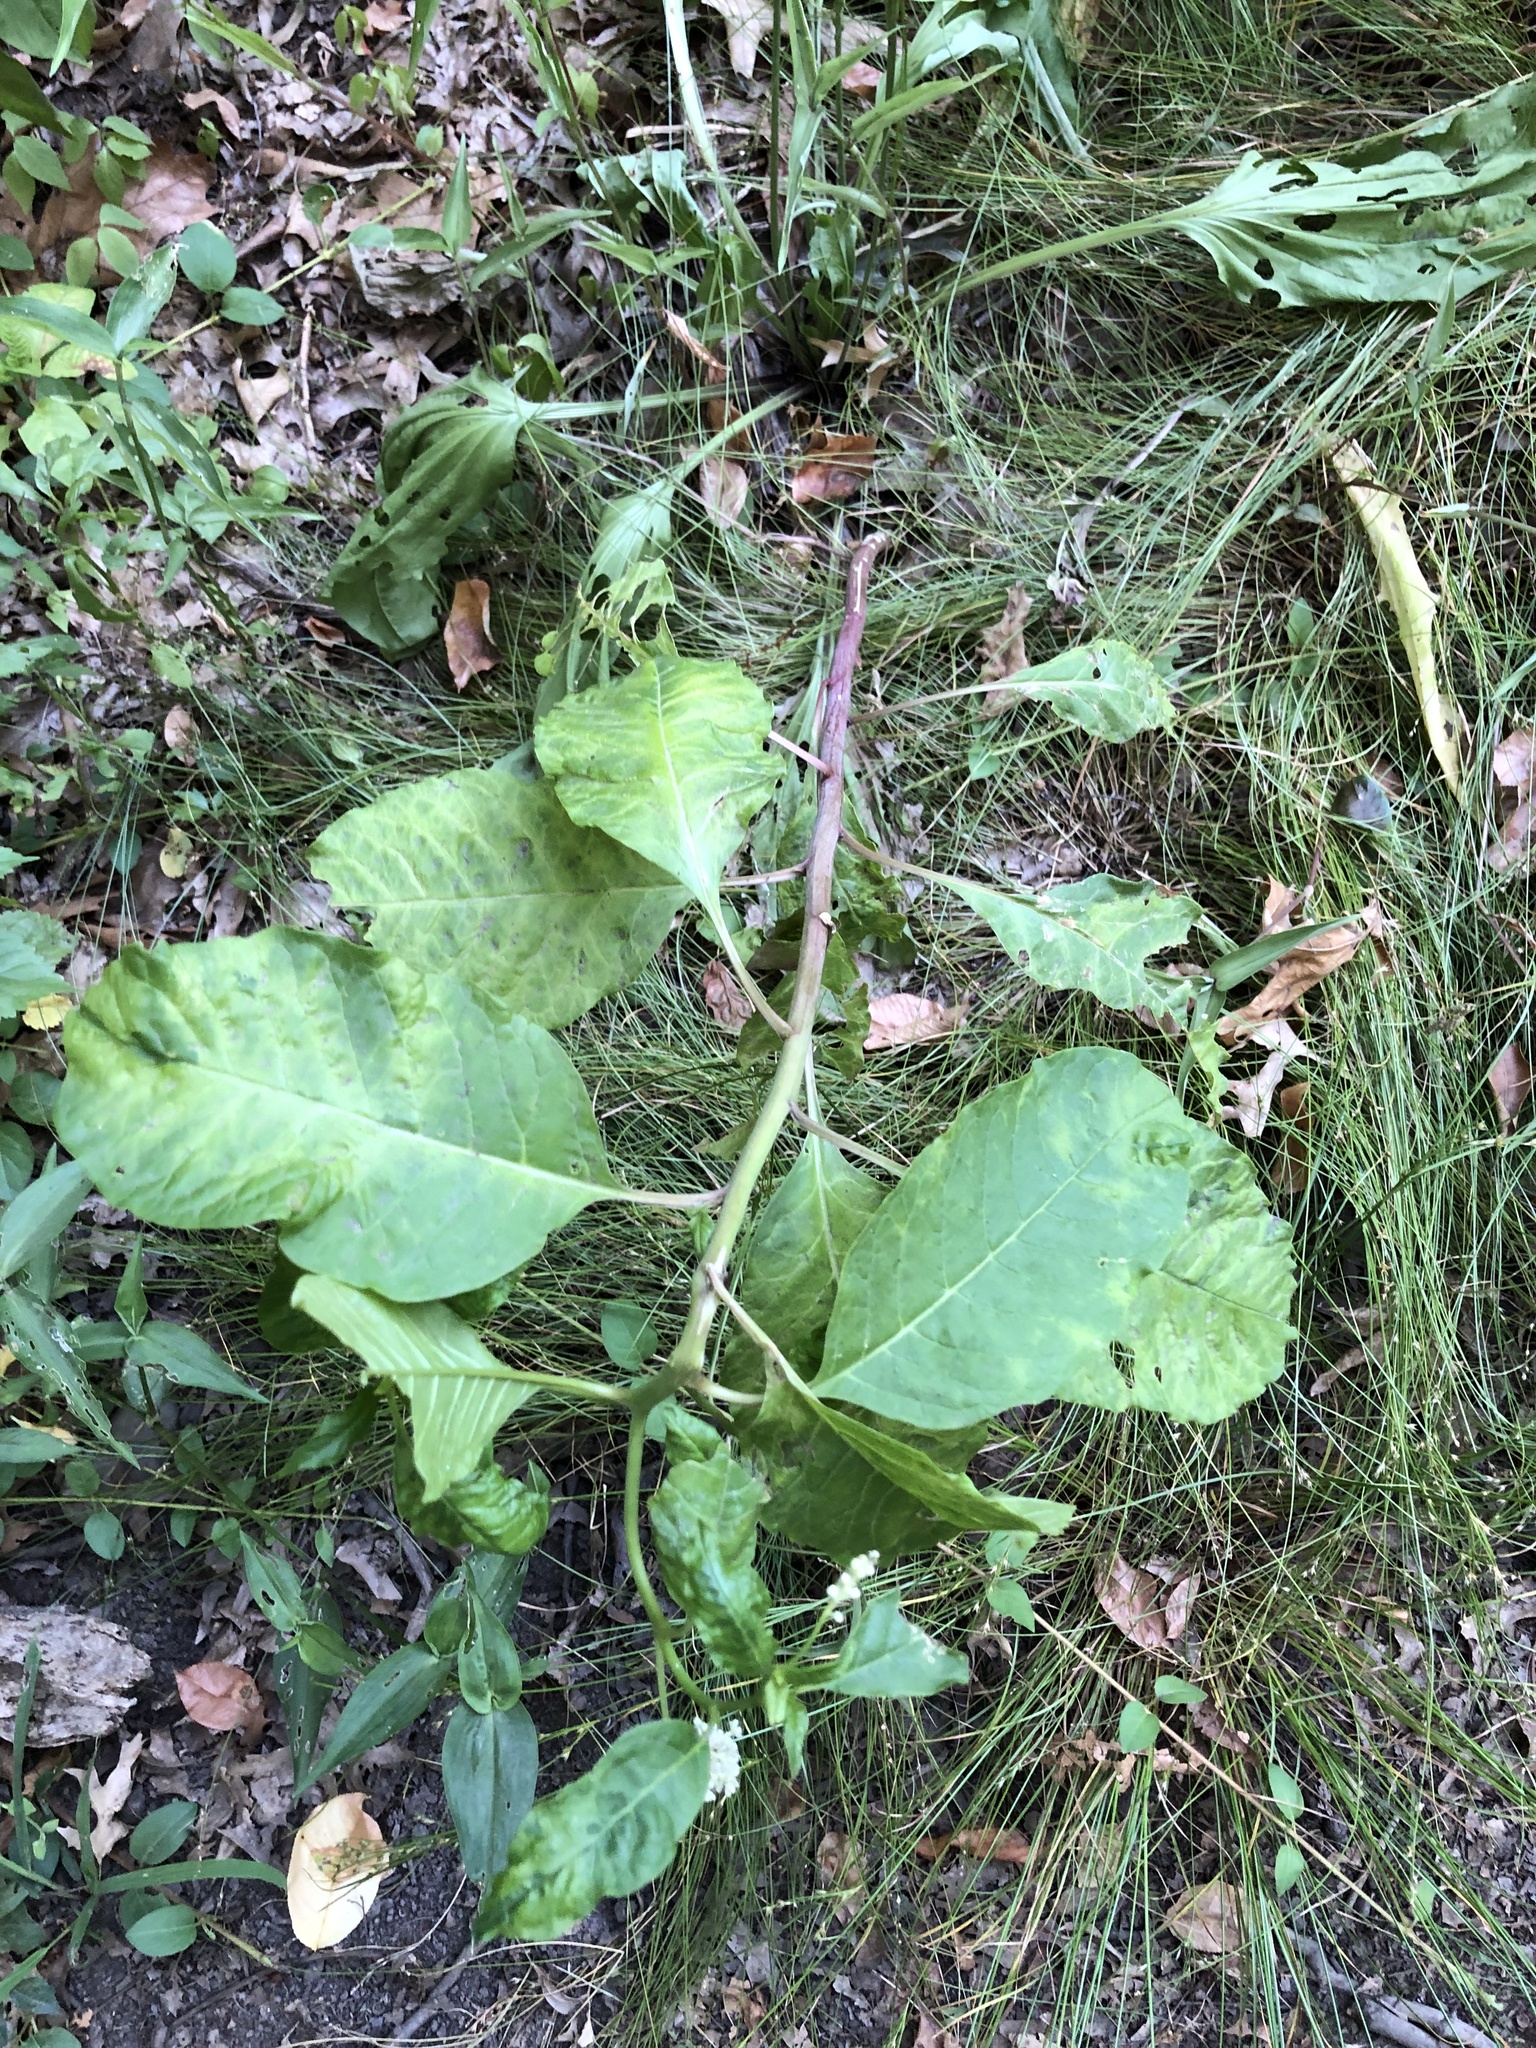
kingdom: Plantae
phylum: Tracheophyta
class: Magnoliopsida
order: Caryophyllales
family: Phytolaccaceae
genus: Phytolacca
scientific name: Phytolacca americana
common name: American pokeweed
